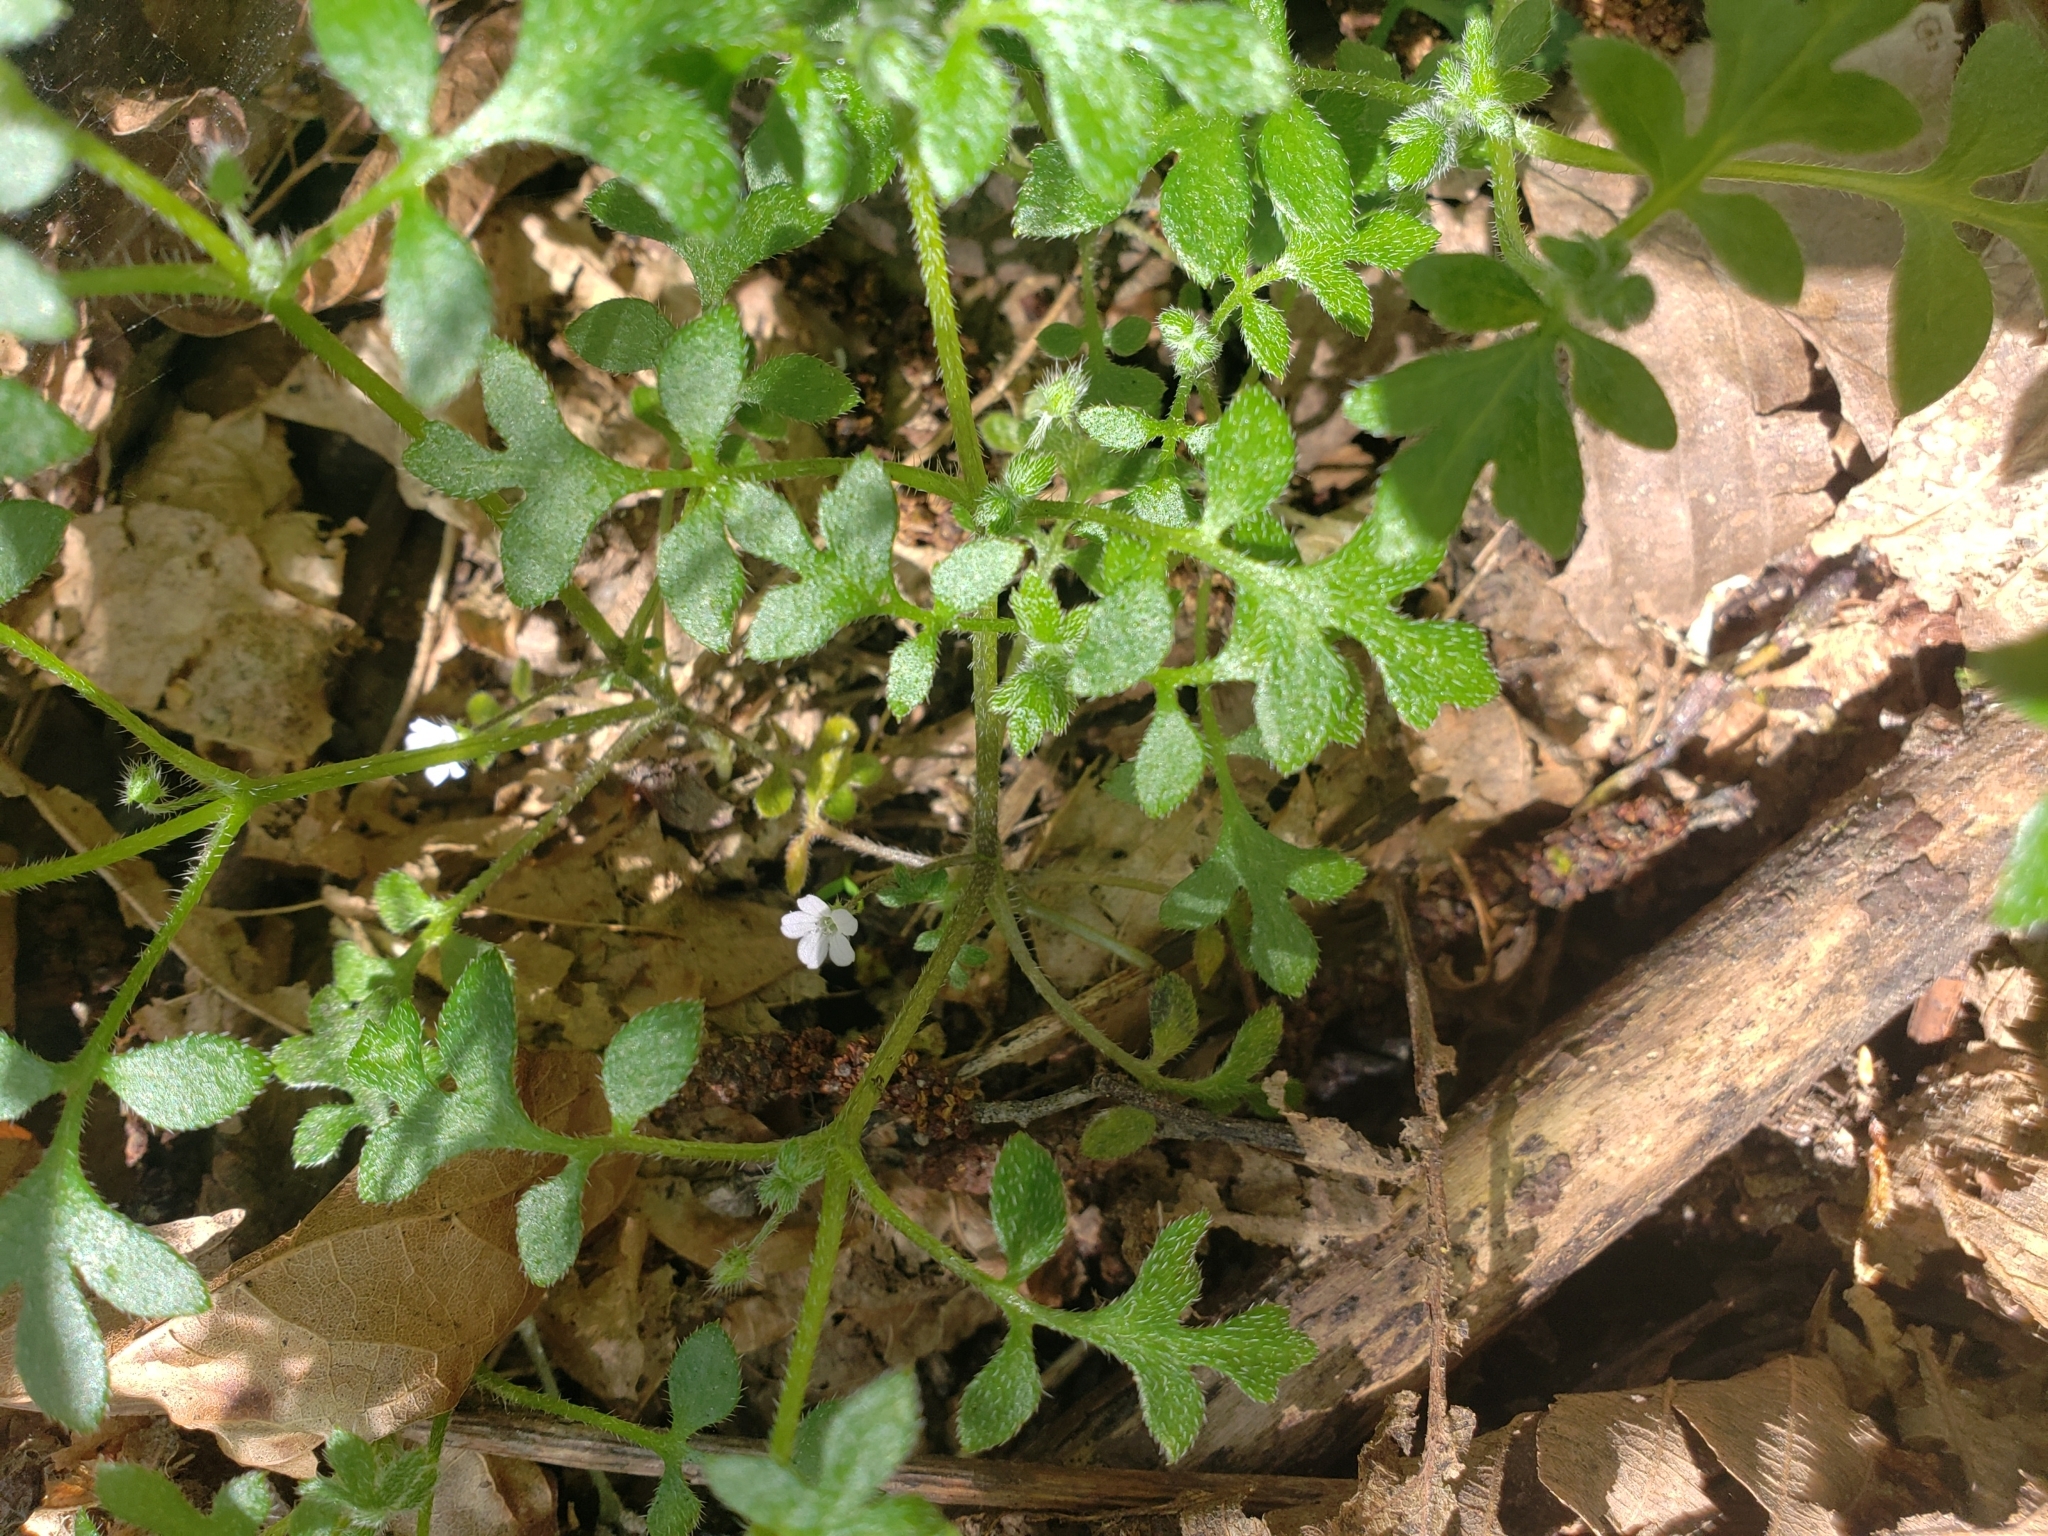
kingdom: Plantae
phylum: Tracheophyta
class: Magnoliopsida
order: Boraginales
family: Hydrophyllaceae
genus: Nemophila
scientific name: Nemophila parviflora
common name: Small-flowered baby-blue-eyes
